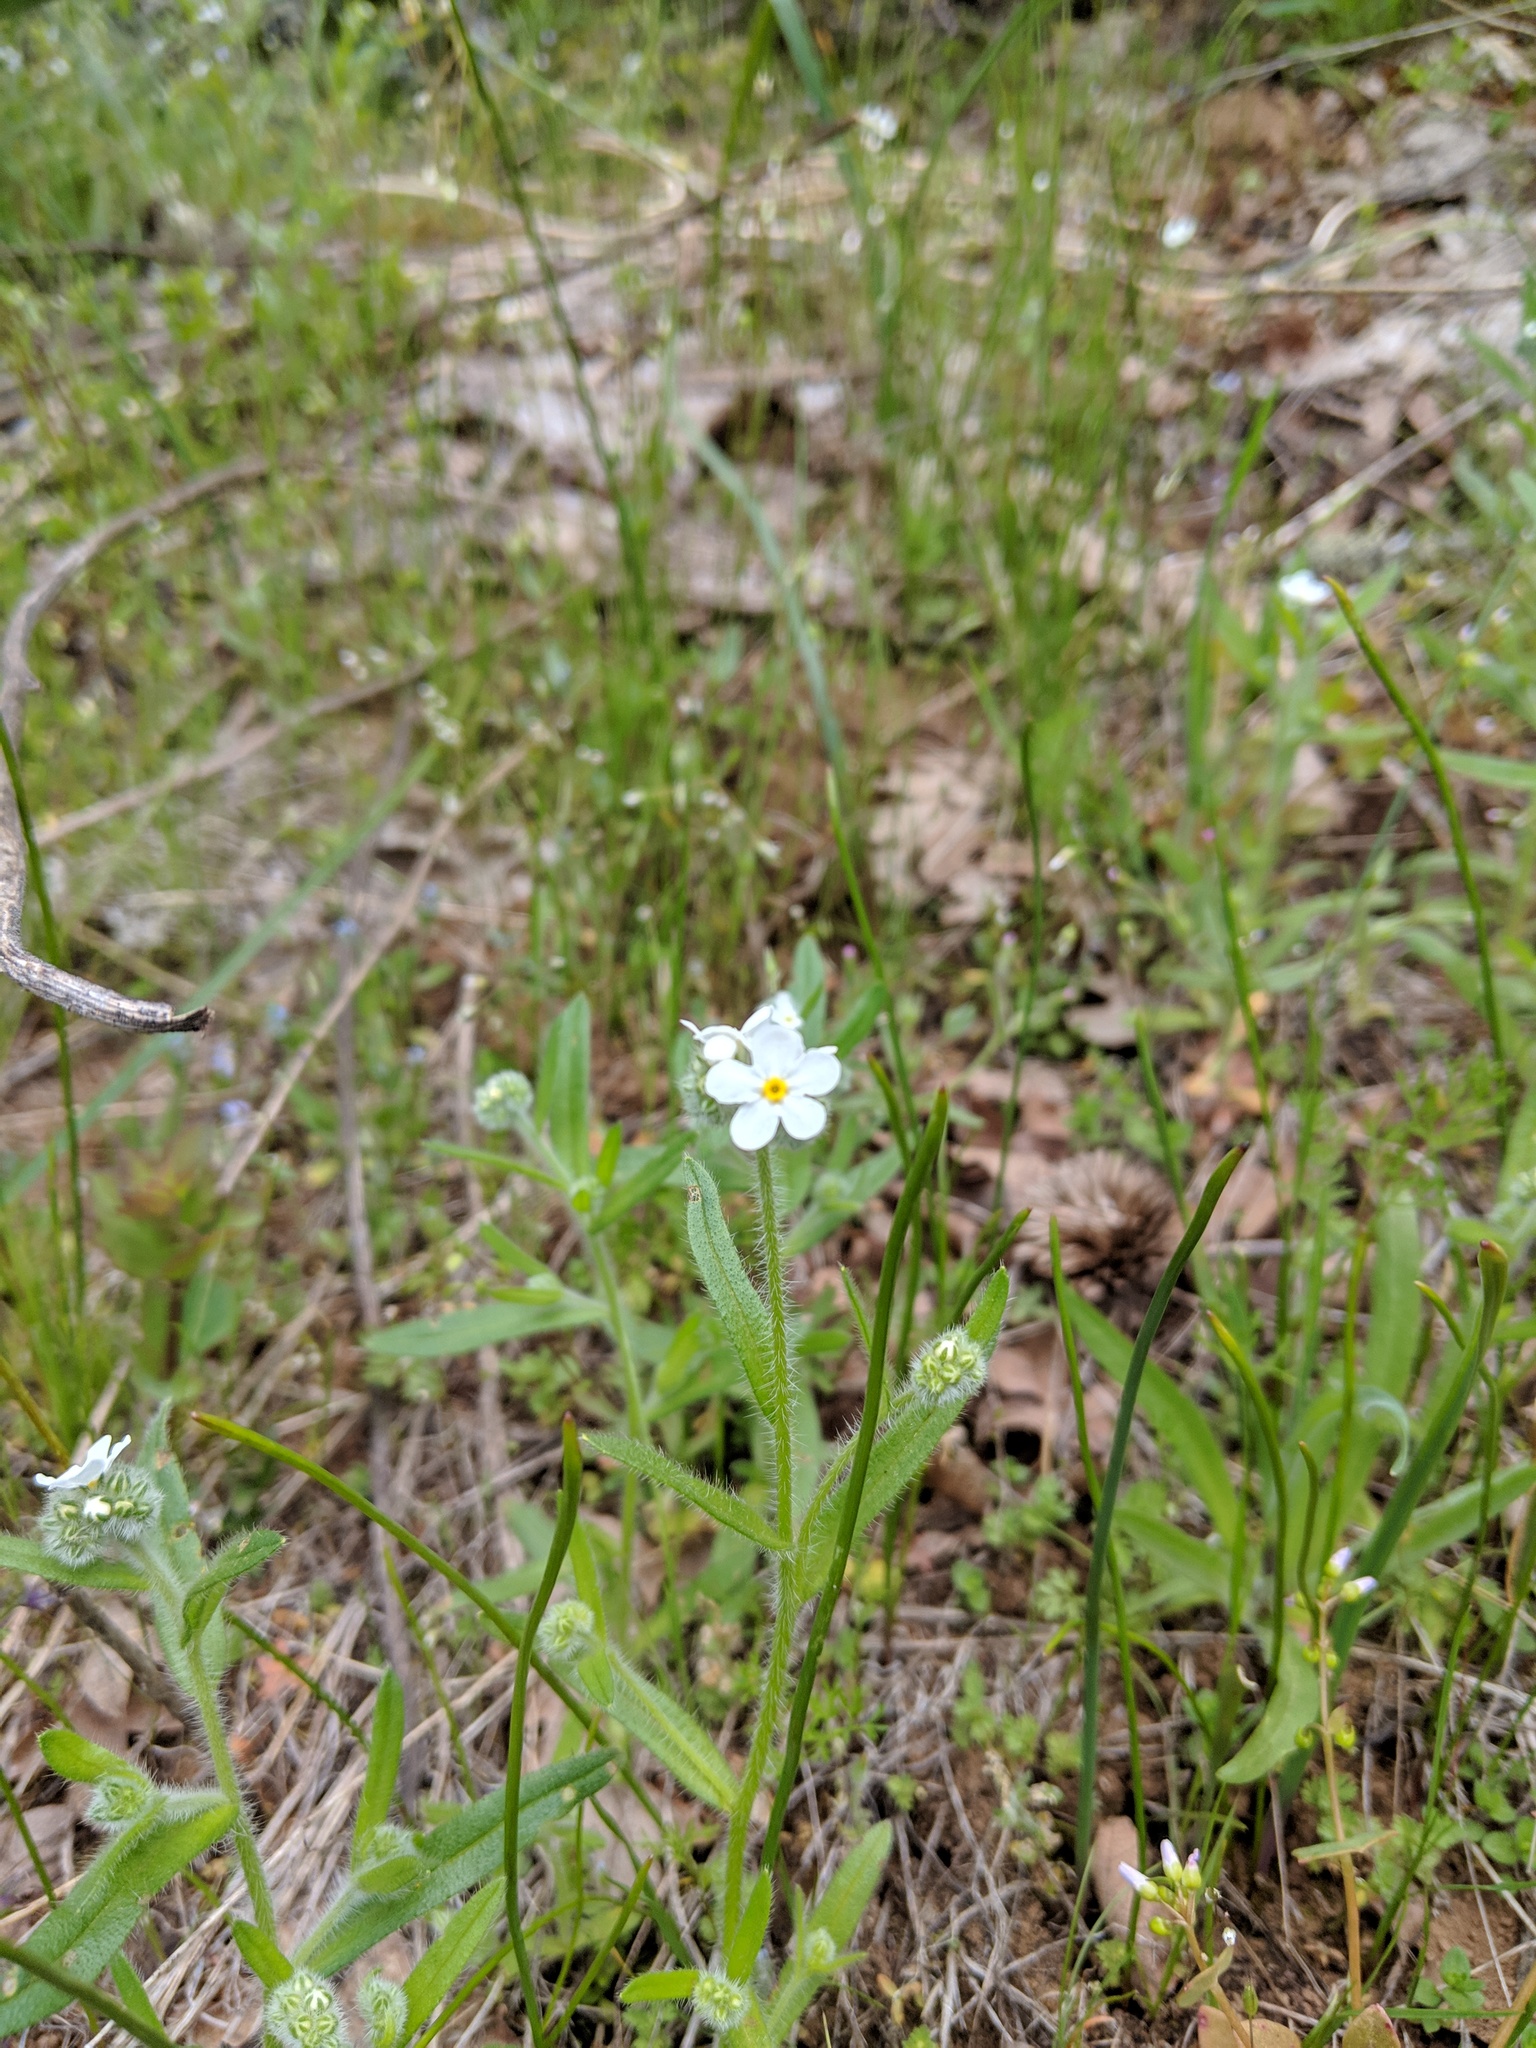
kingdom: Plantae
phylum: Tracheophyta
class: Magnoliopsida
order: Boraginales
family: Boraginaceae
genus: Cryptantha
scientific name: Cryptantha intermedia
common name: Clearwater cryptantha
